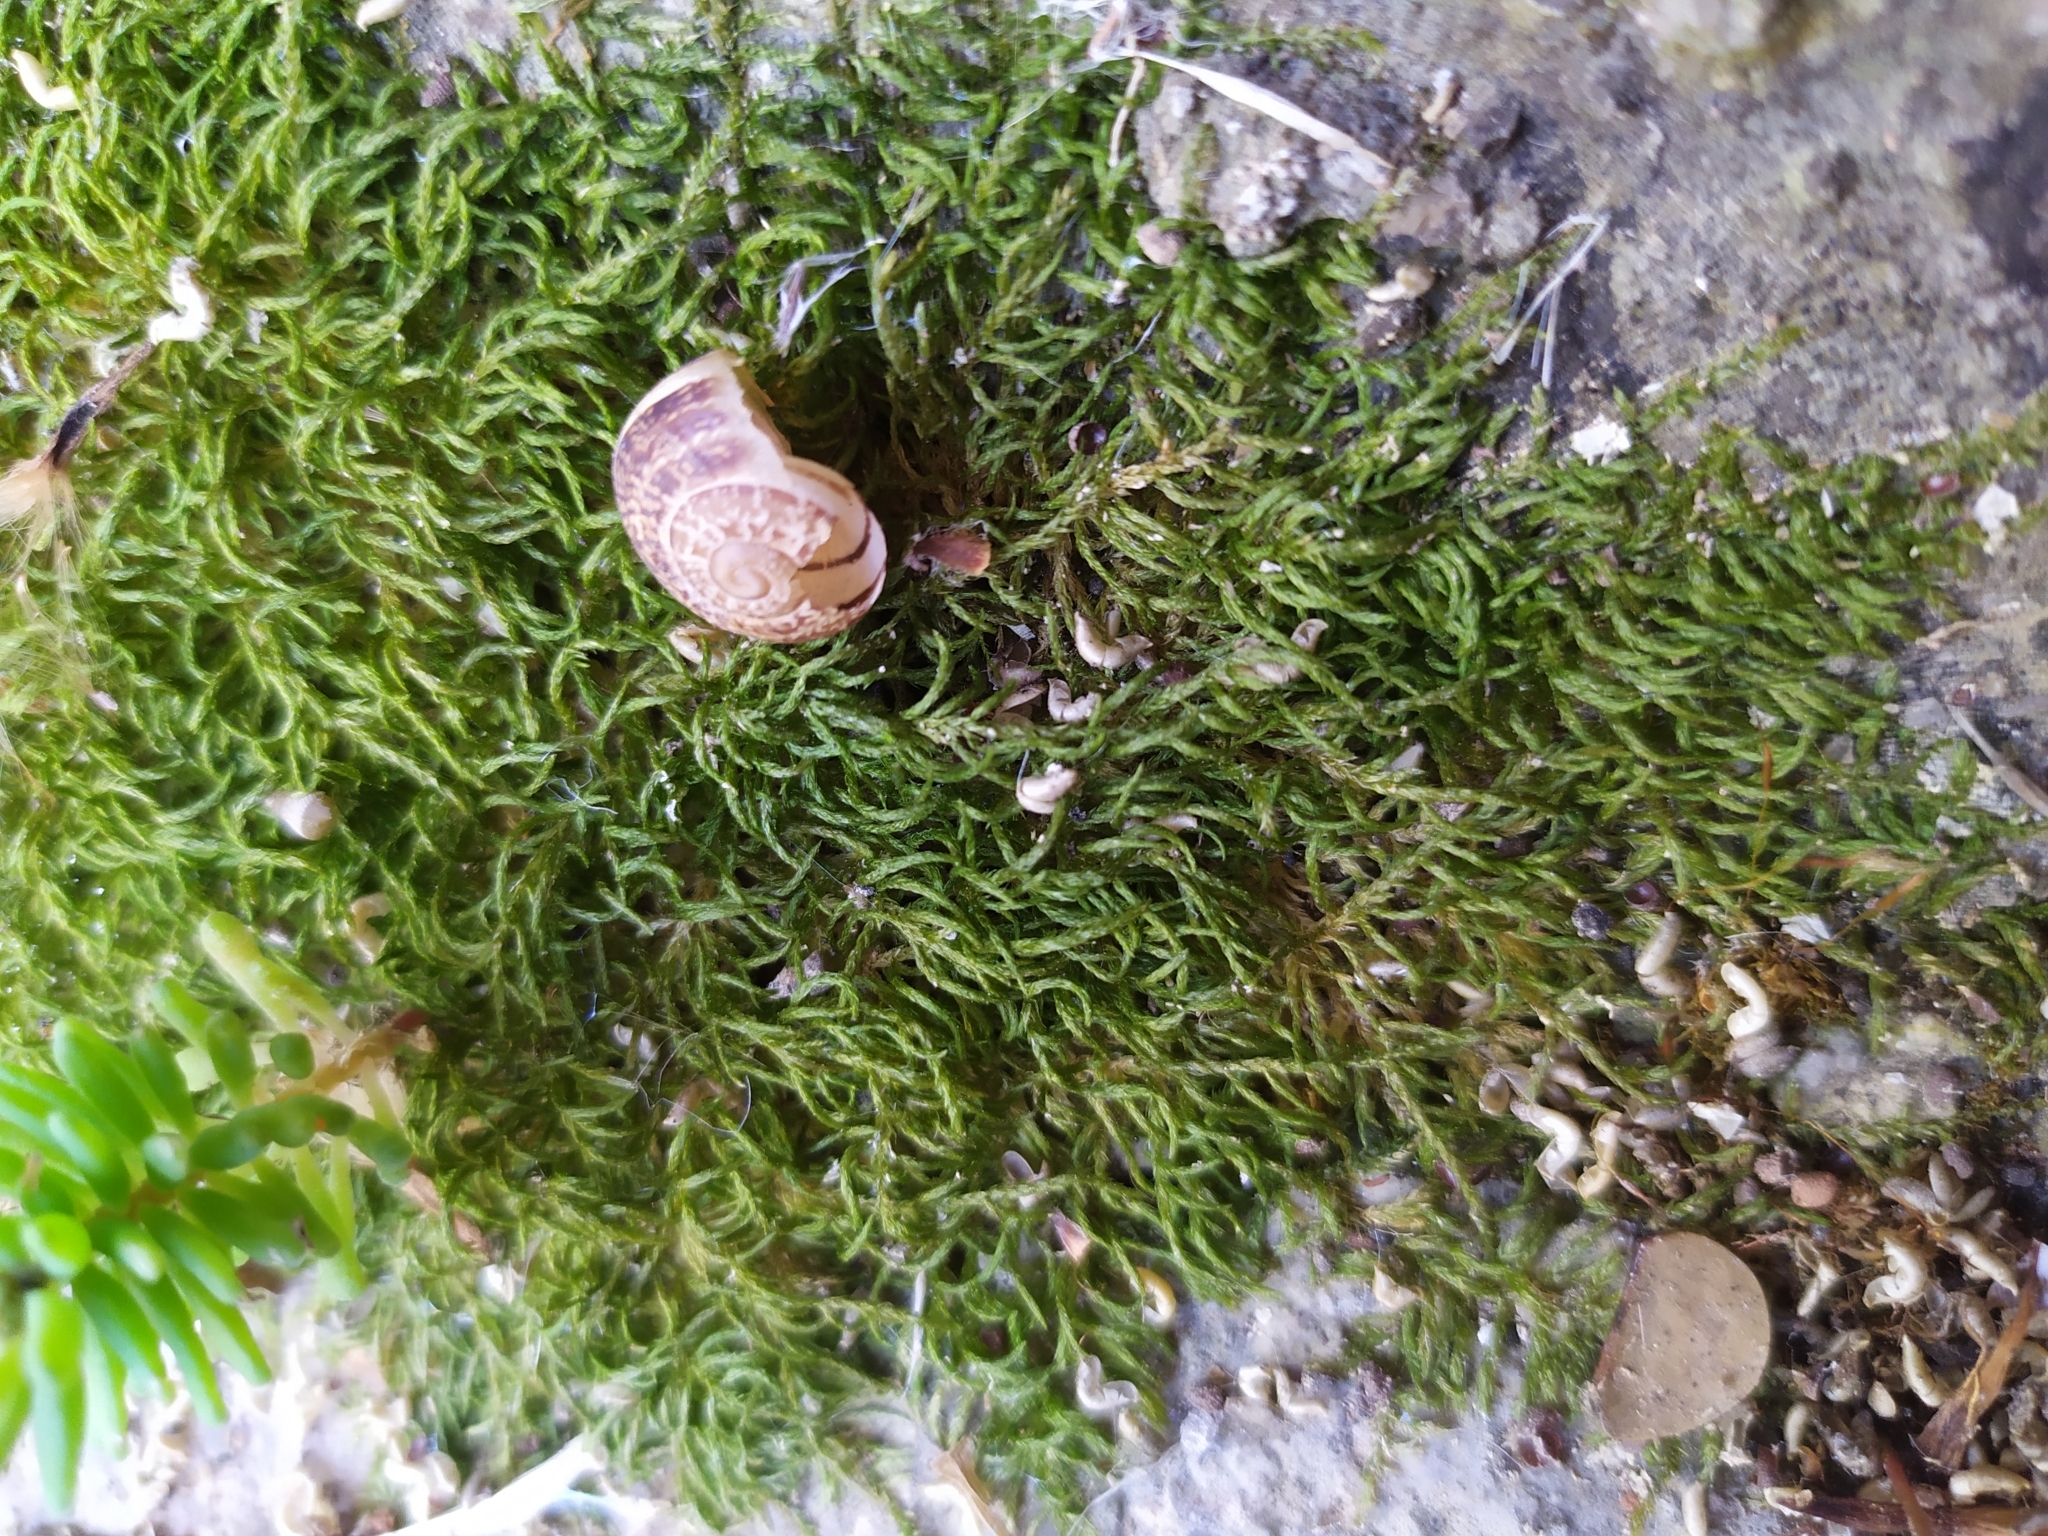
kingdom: Plantae
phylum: Bryophyta
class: Bryopsida
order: Hypnales
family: Brachytheciaceae
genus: Scorpiurium
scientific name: Scorpiurium circinatum
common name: Curving feather-moss
